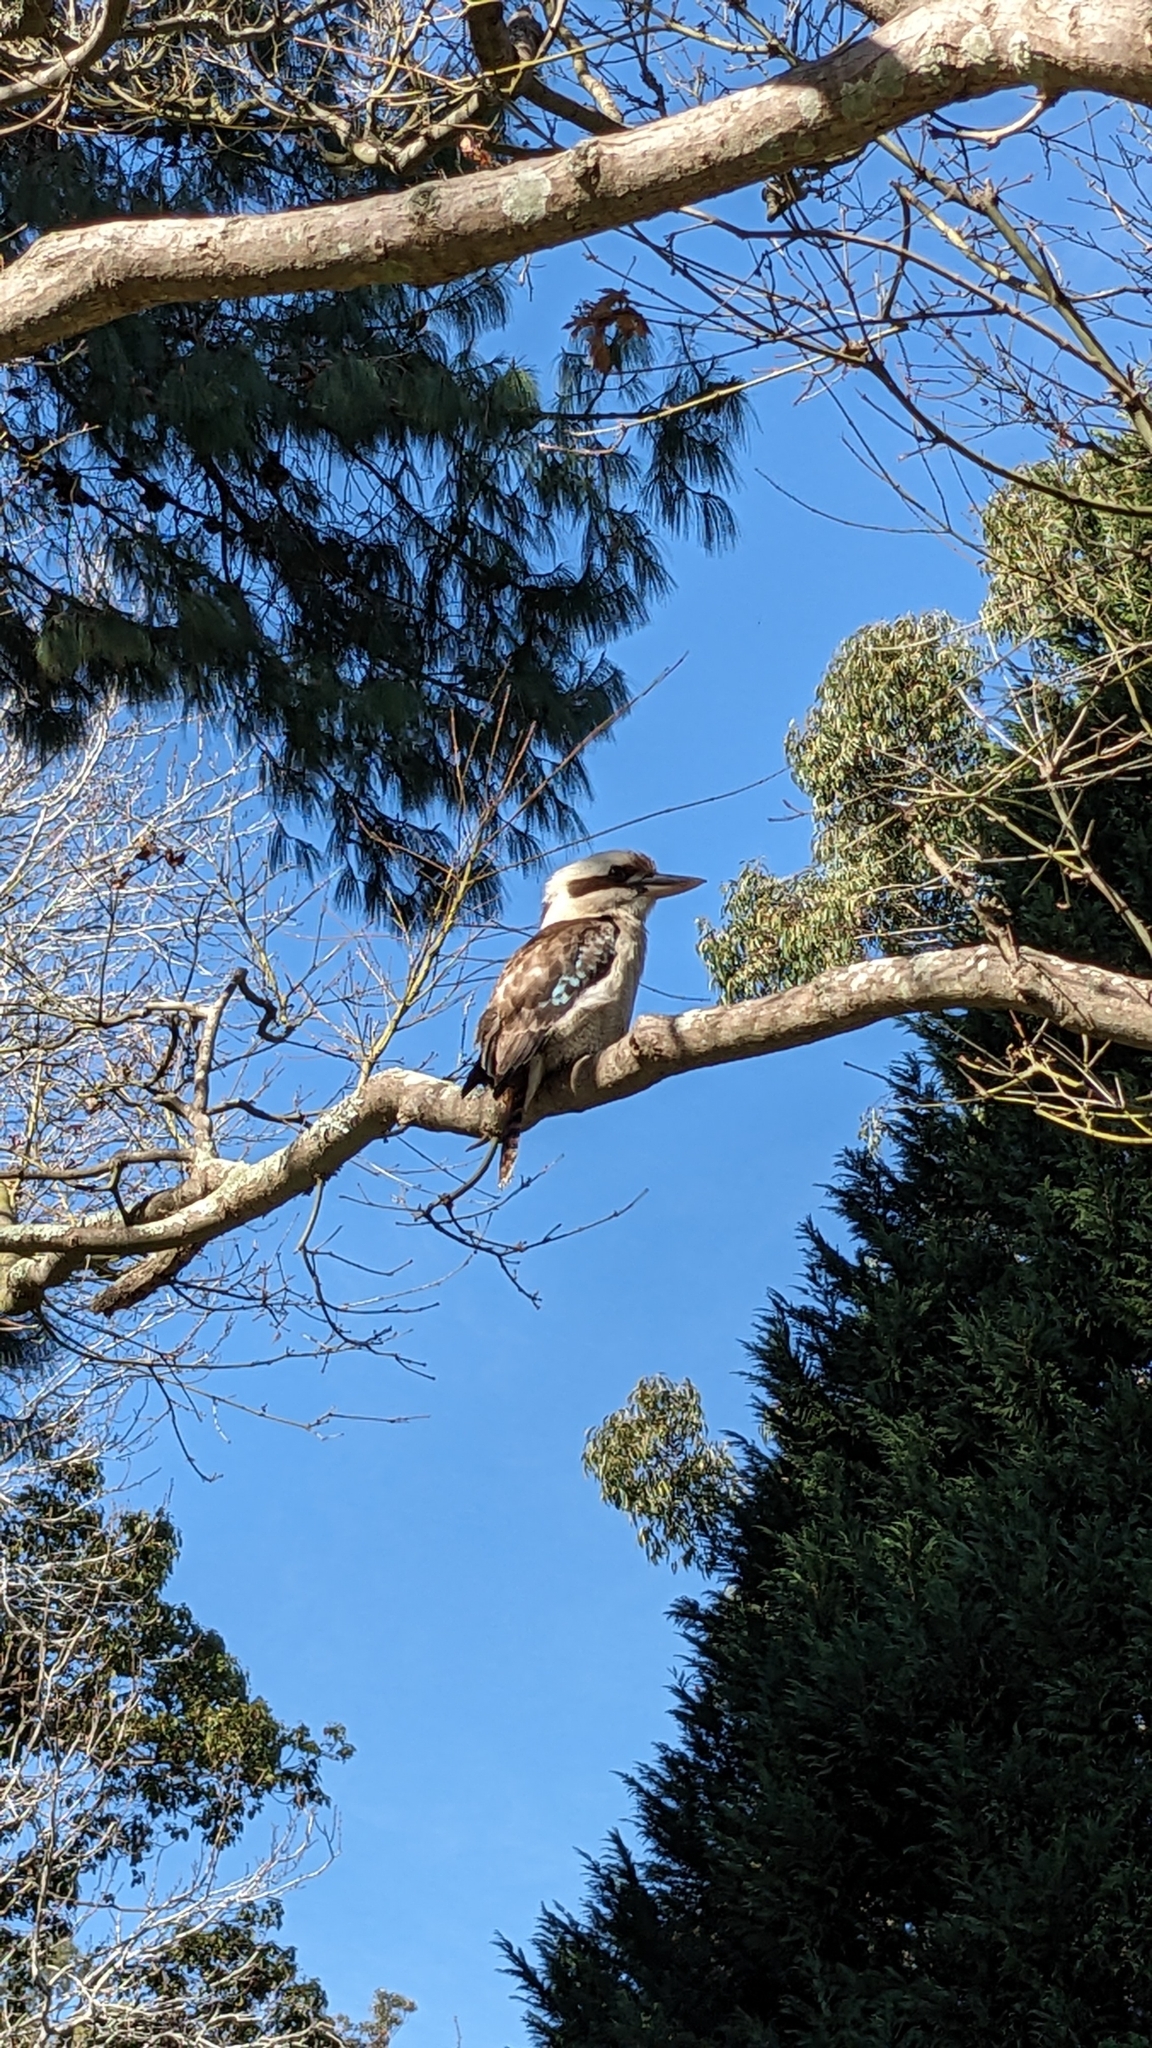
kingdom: Animalia
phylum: Chordata
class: Aves
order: Coraciiformes
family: Alcedinidae
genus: Dacelo
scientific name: Dacelo novaeguineae
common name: Laughing kookaburra
